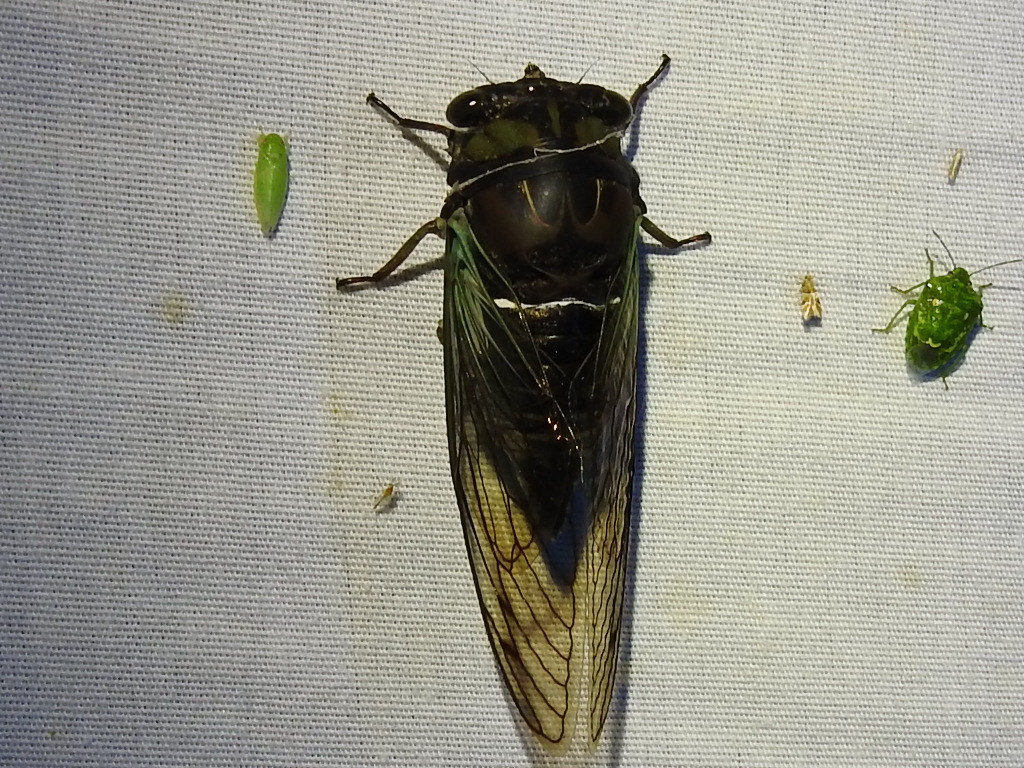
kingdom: Animalia
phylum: Arthropoda
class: Insecta
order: Hemiptera
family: Cicadidae
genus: Neotibicen
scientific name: Neotibicen lyricen
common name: Lyric cicada
